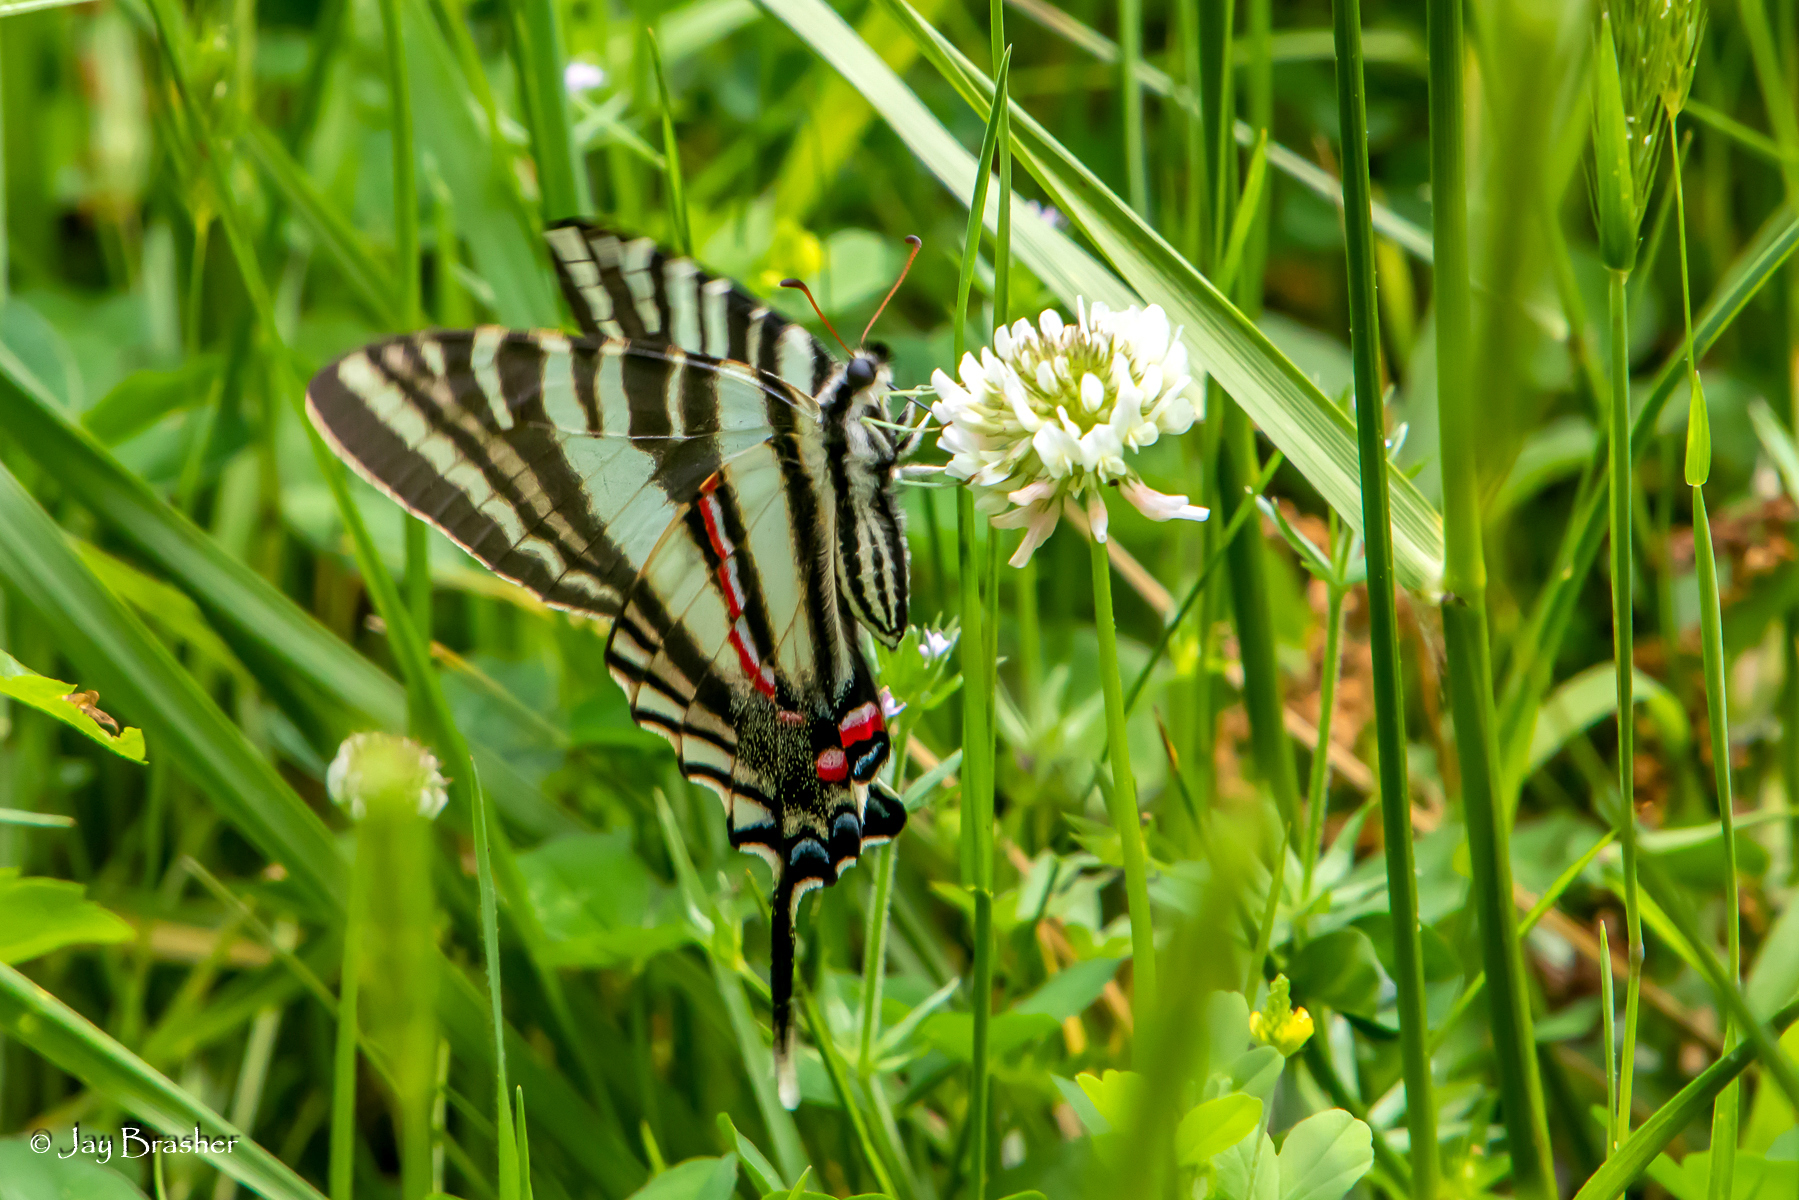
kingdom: Animalia
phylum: Arthropoda
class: Insecta
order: Lepidoptera
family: Papilionidae
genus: Protographium
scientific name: Protographium marcellus
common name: Zebra swallowtail
